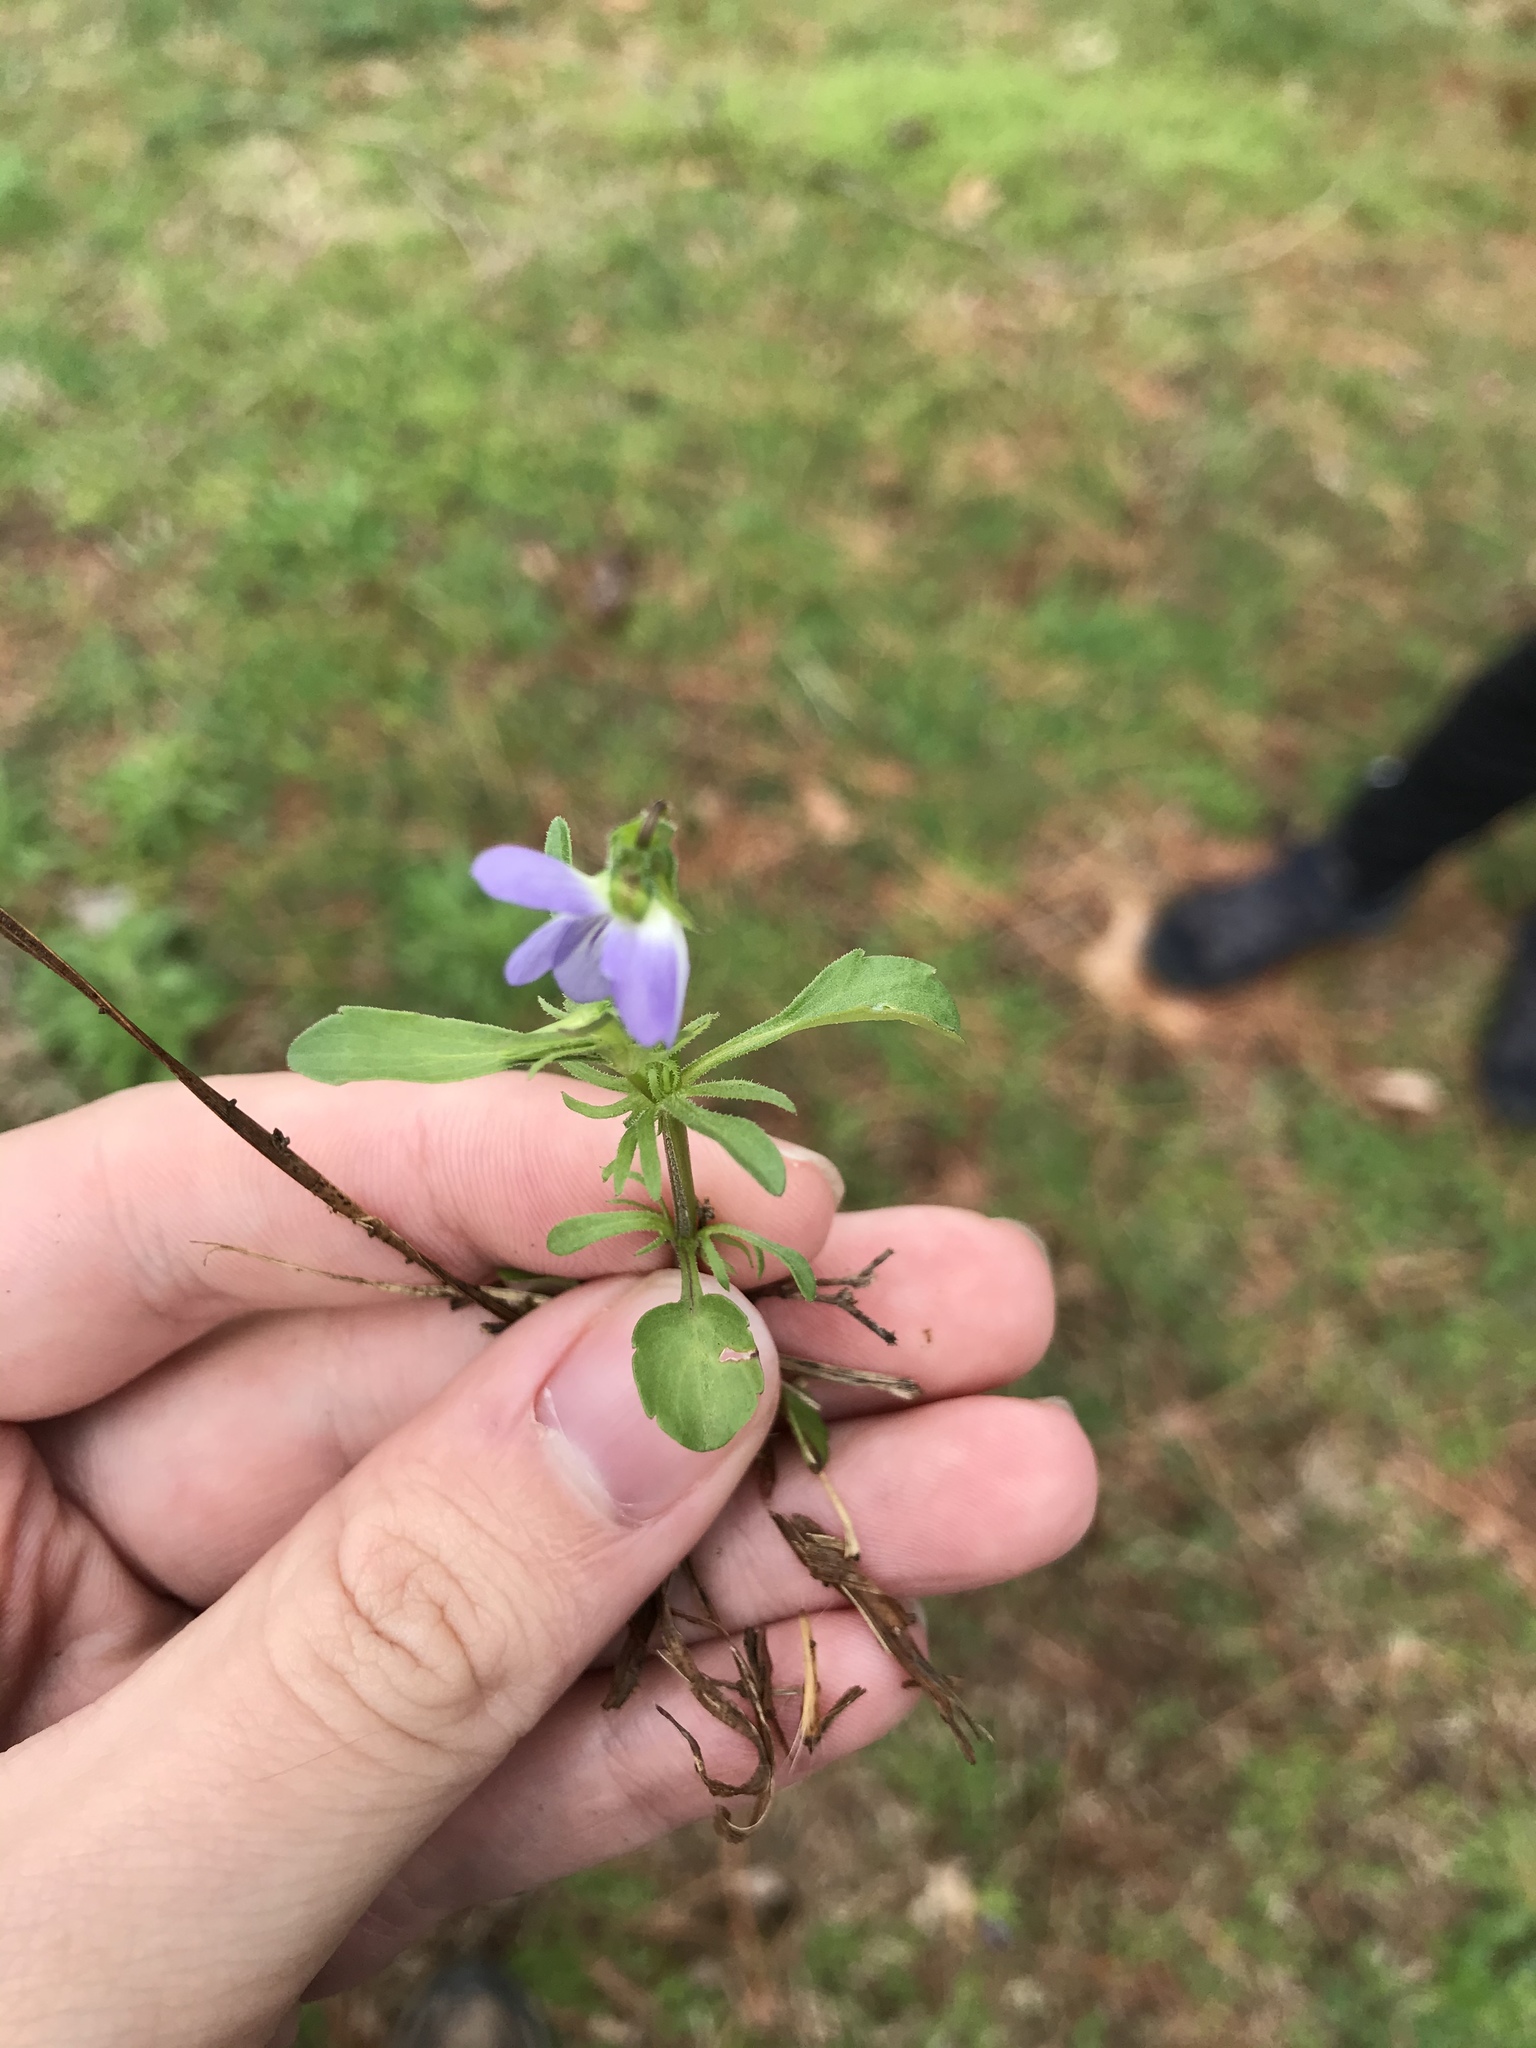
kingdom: Plantae
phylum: Tracheophyta
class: Magnoliopsida
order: Malpighiales
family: Violaceae
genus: Viola
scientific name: Viola rafinesquei
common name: American field pansy
